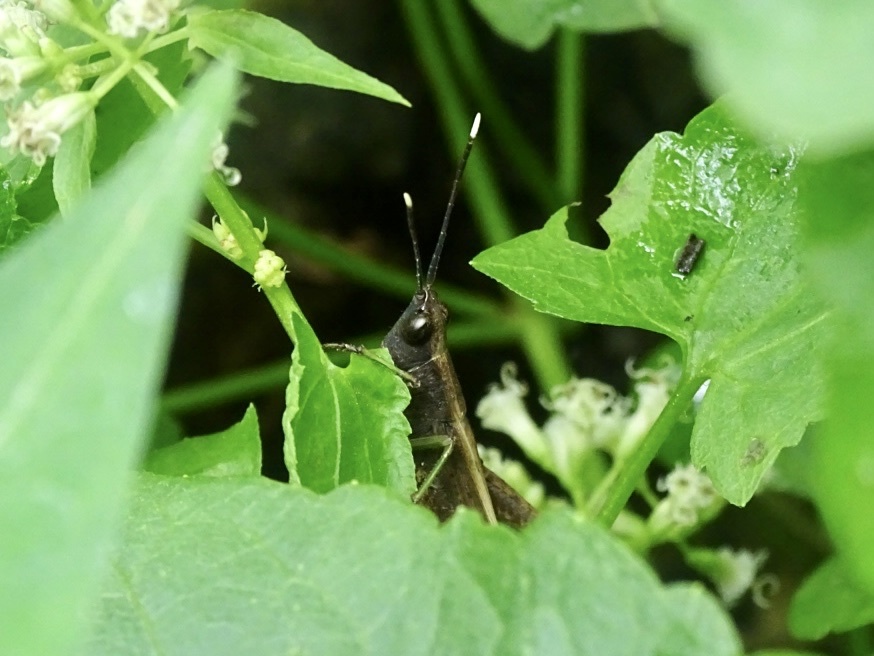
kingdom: Animalia
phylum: Arthropoda
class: Insecta
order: Orthoptera
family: Acrididae
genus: Phlaeoba
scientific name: Phlaeoba antennata
